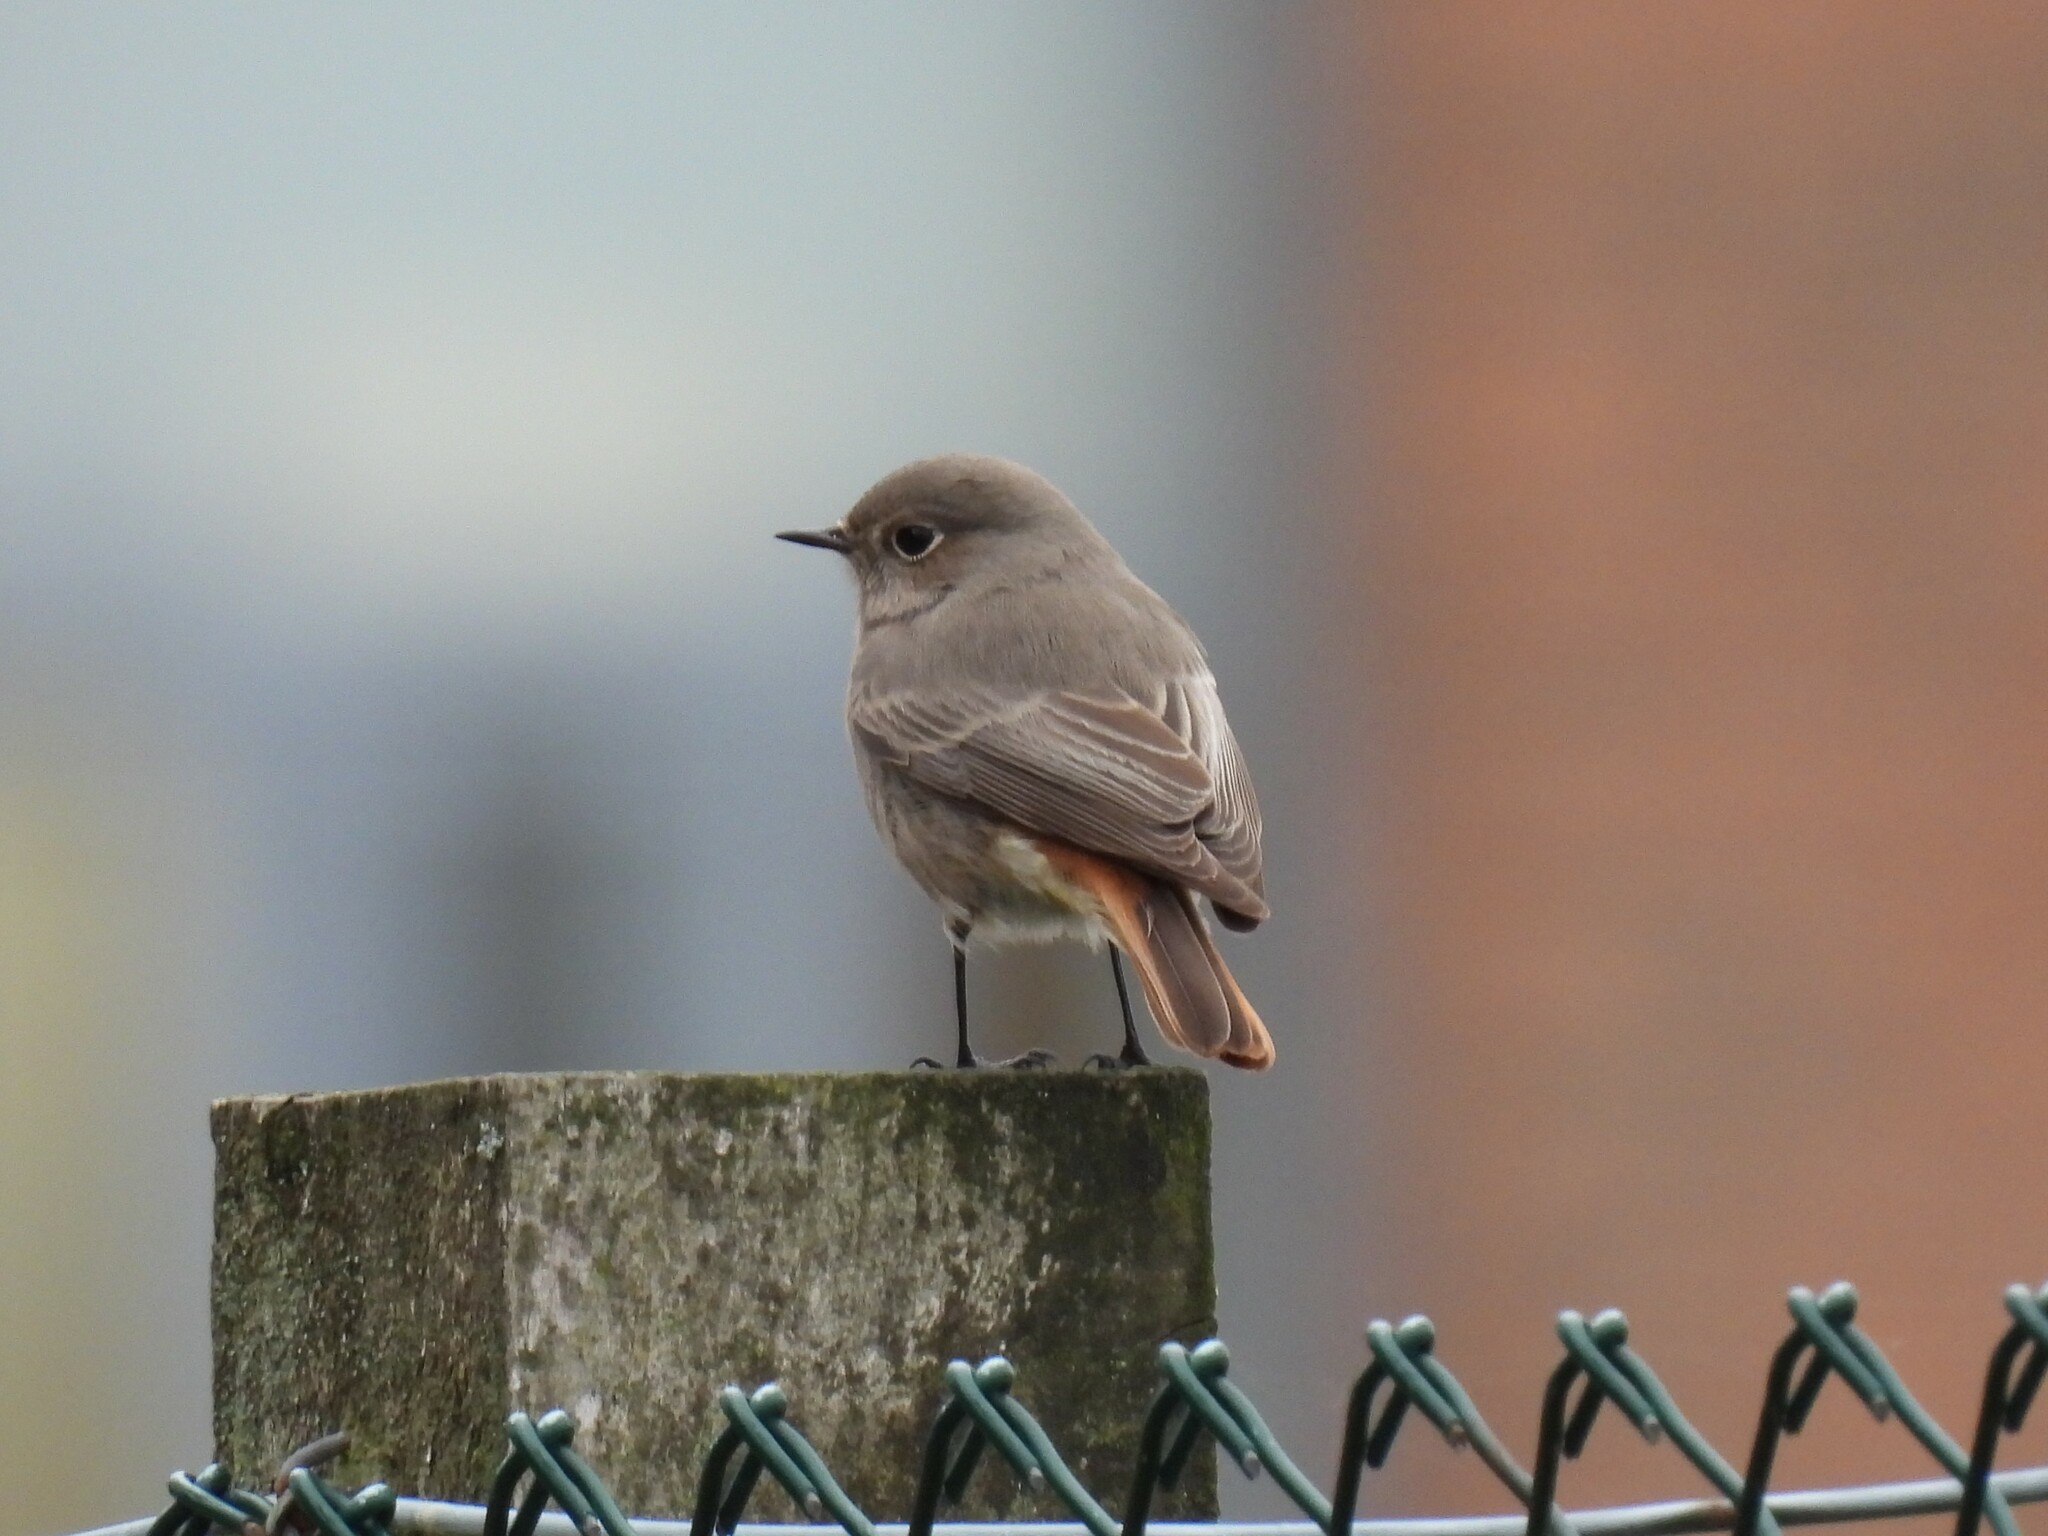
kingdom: Animalia
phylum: Chordata
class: Aves
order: Passeriformes
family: Muscicapidae
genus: Phoenicurus
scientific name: Phoenicurus ochruros
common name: Black redstart
